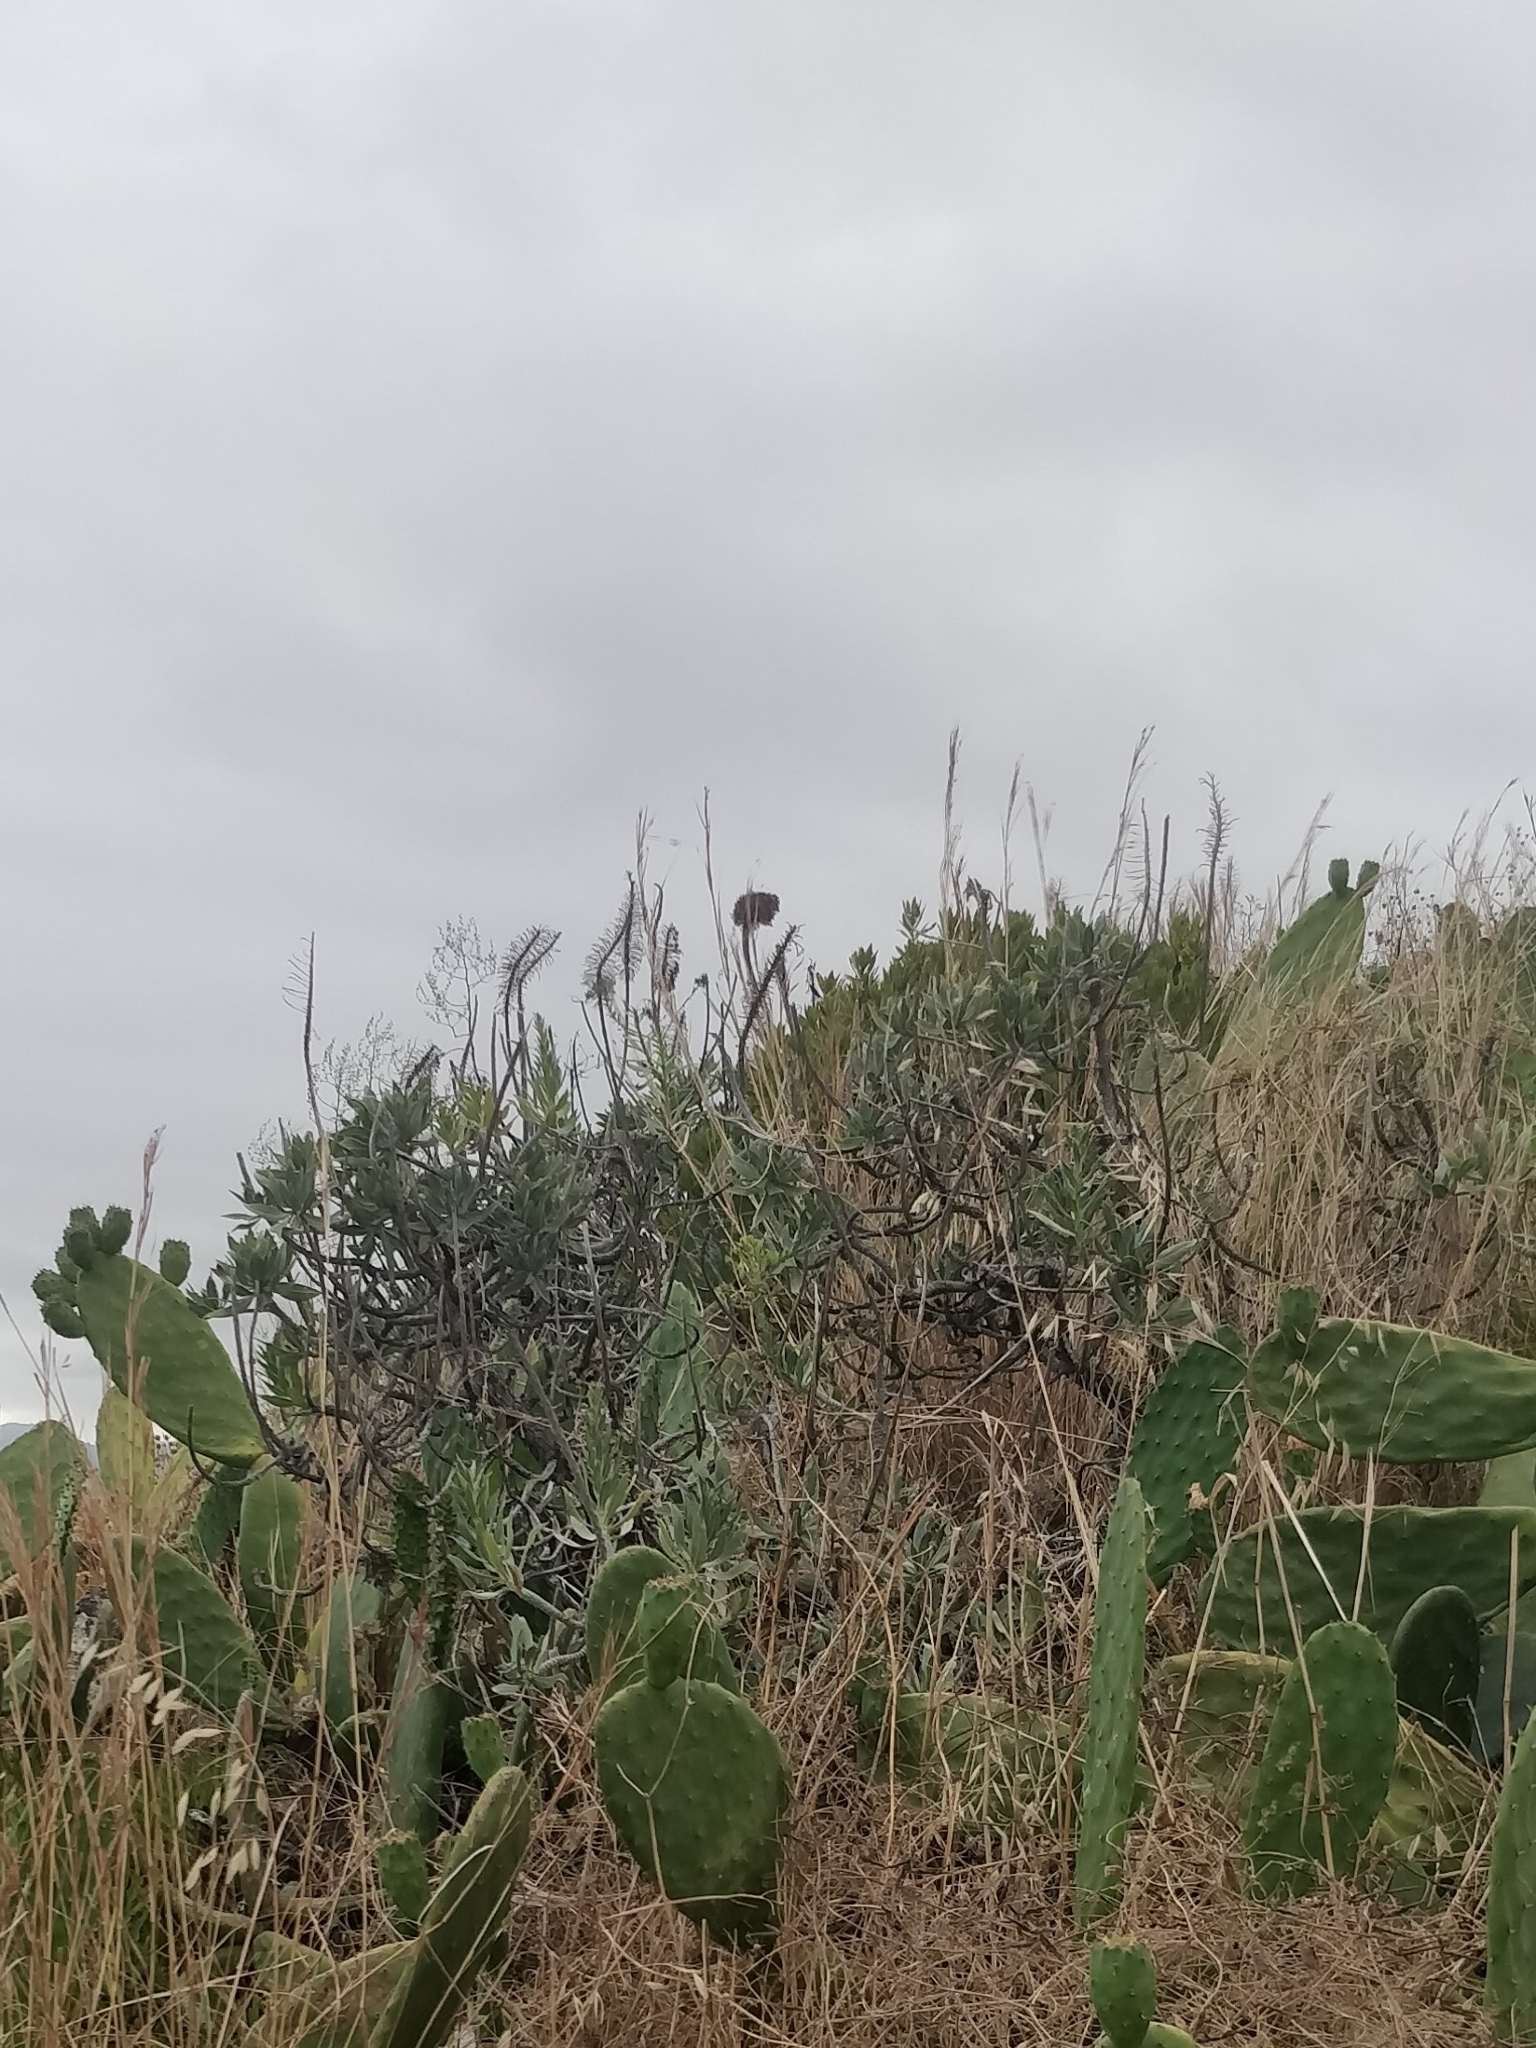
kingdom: Plantae
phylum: Tracheophyta
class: Magnoliopsida
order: Boraginales
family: Boraginaceae
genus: Echium
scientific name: Echium nervosum
